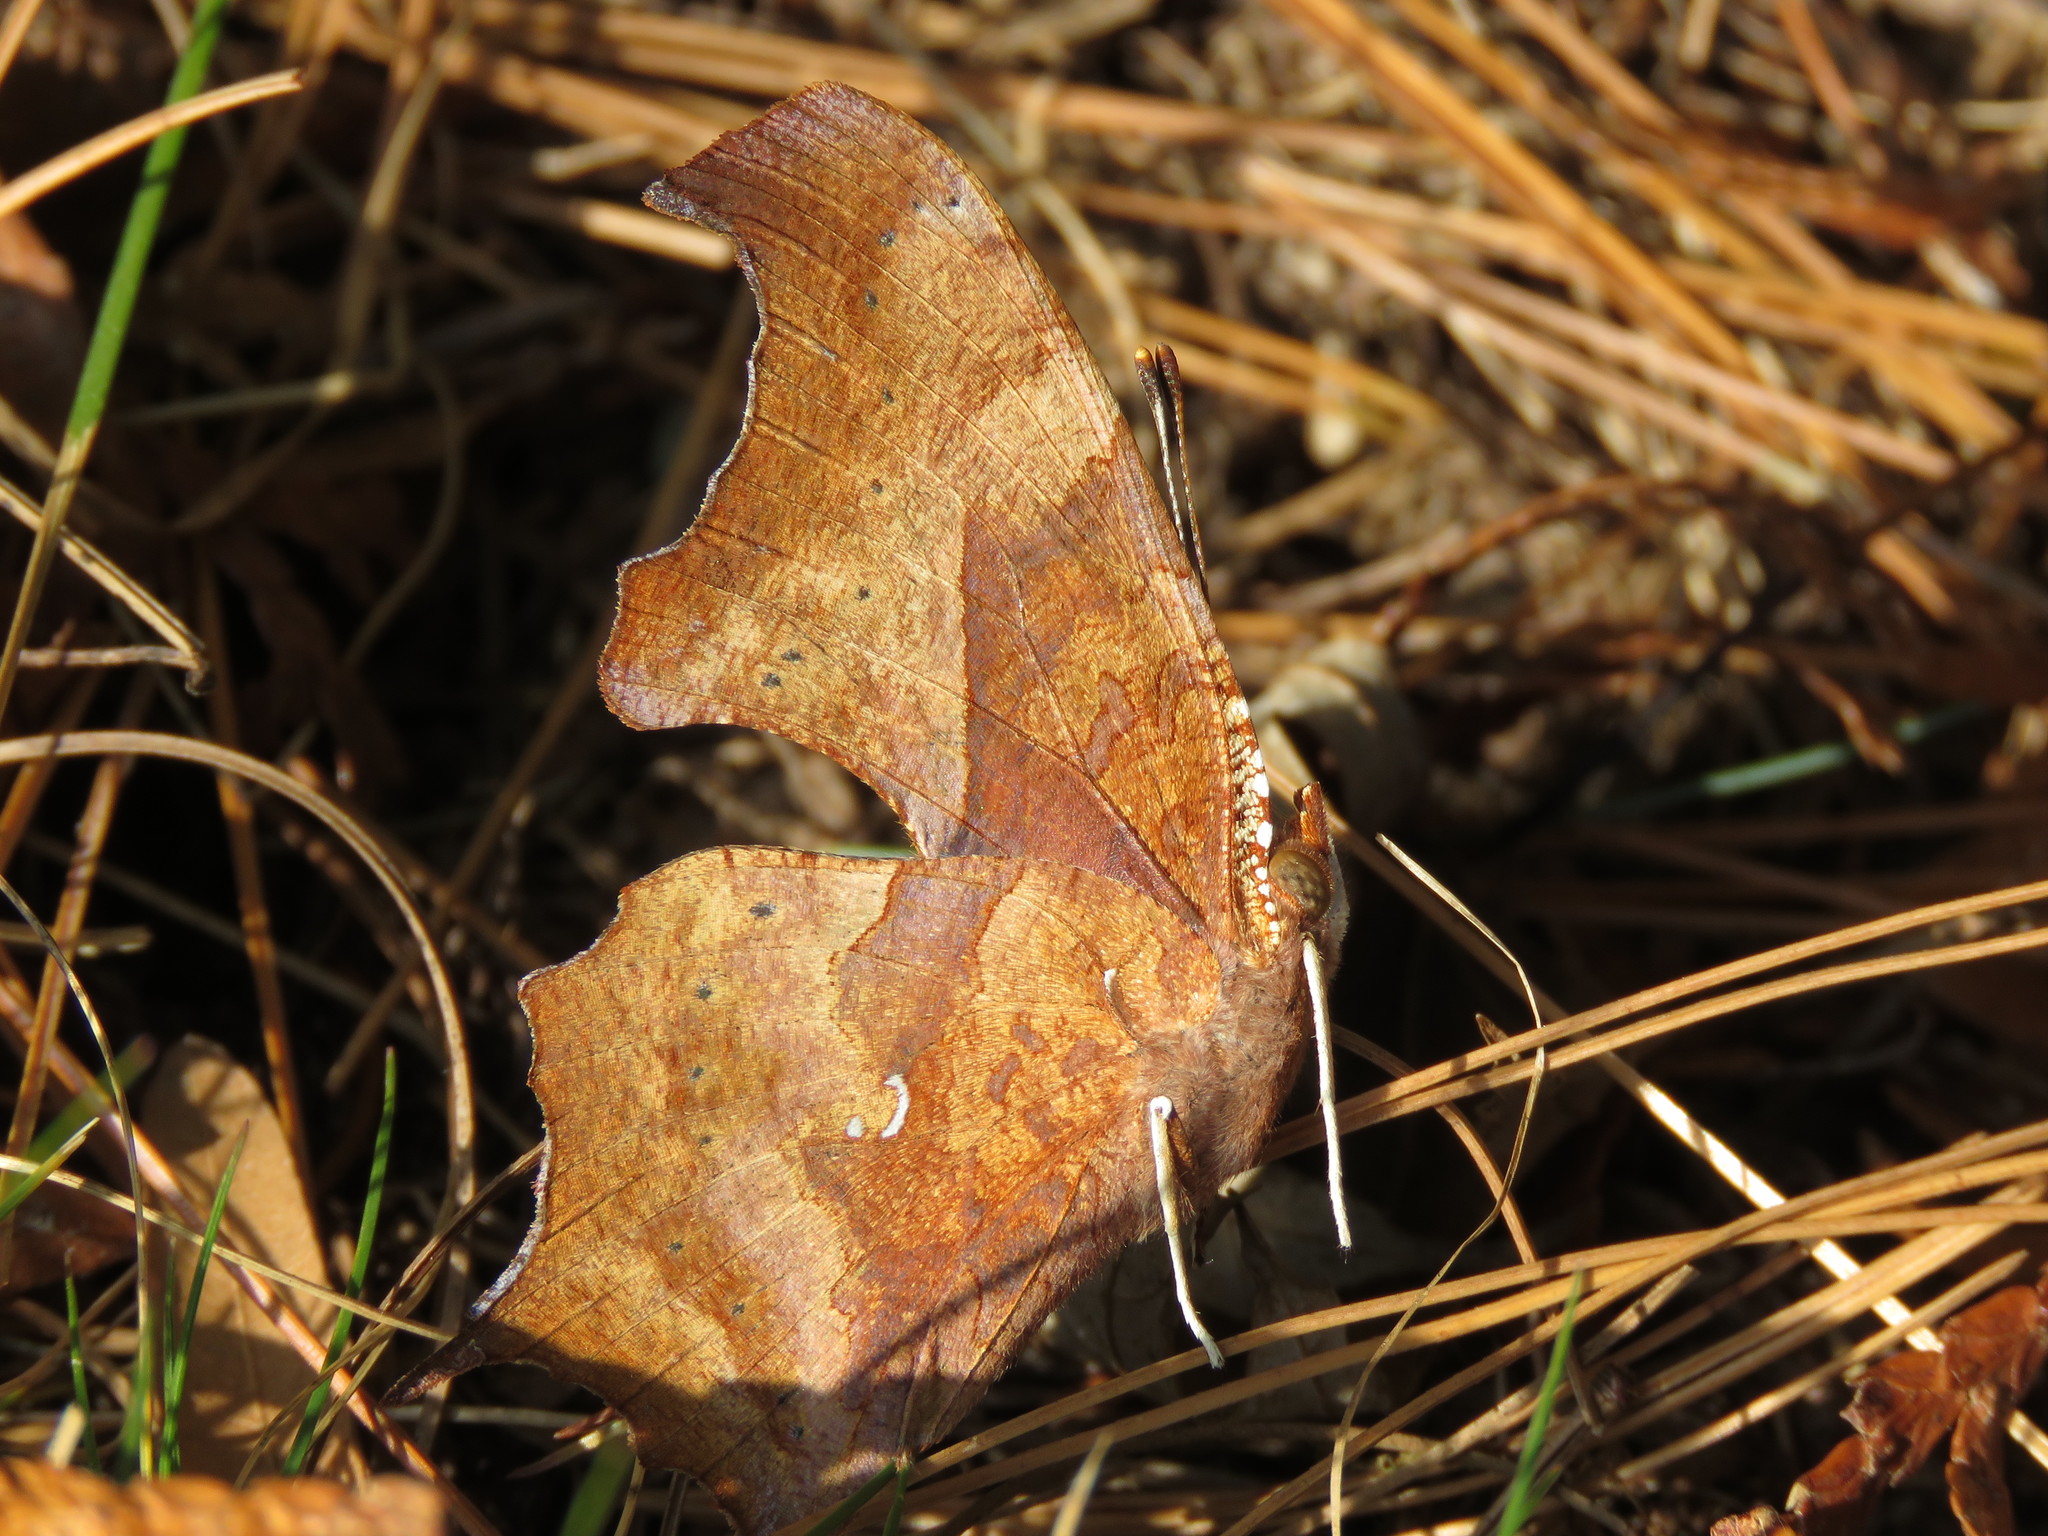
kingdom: Animalia
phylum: Arthropoda
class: Insecta
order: Lepidoptera
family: Nymphalidae
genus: Polygonia
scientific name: Polygonia interrogationis
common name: Question mark
